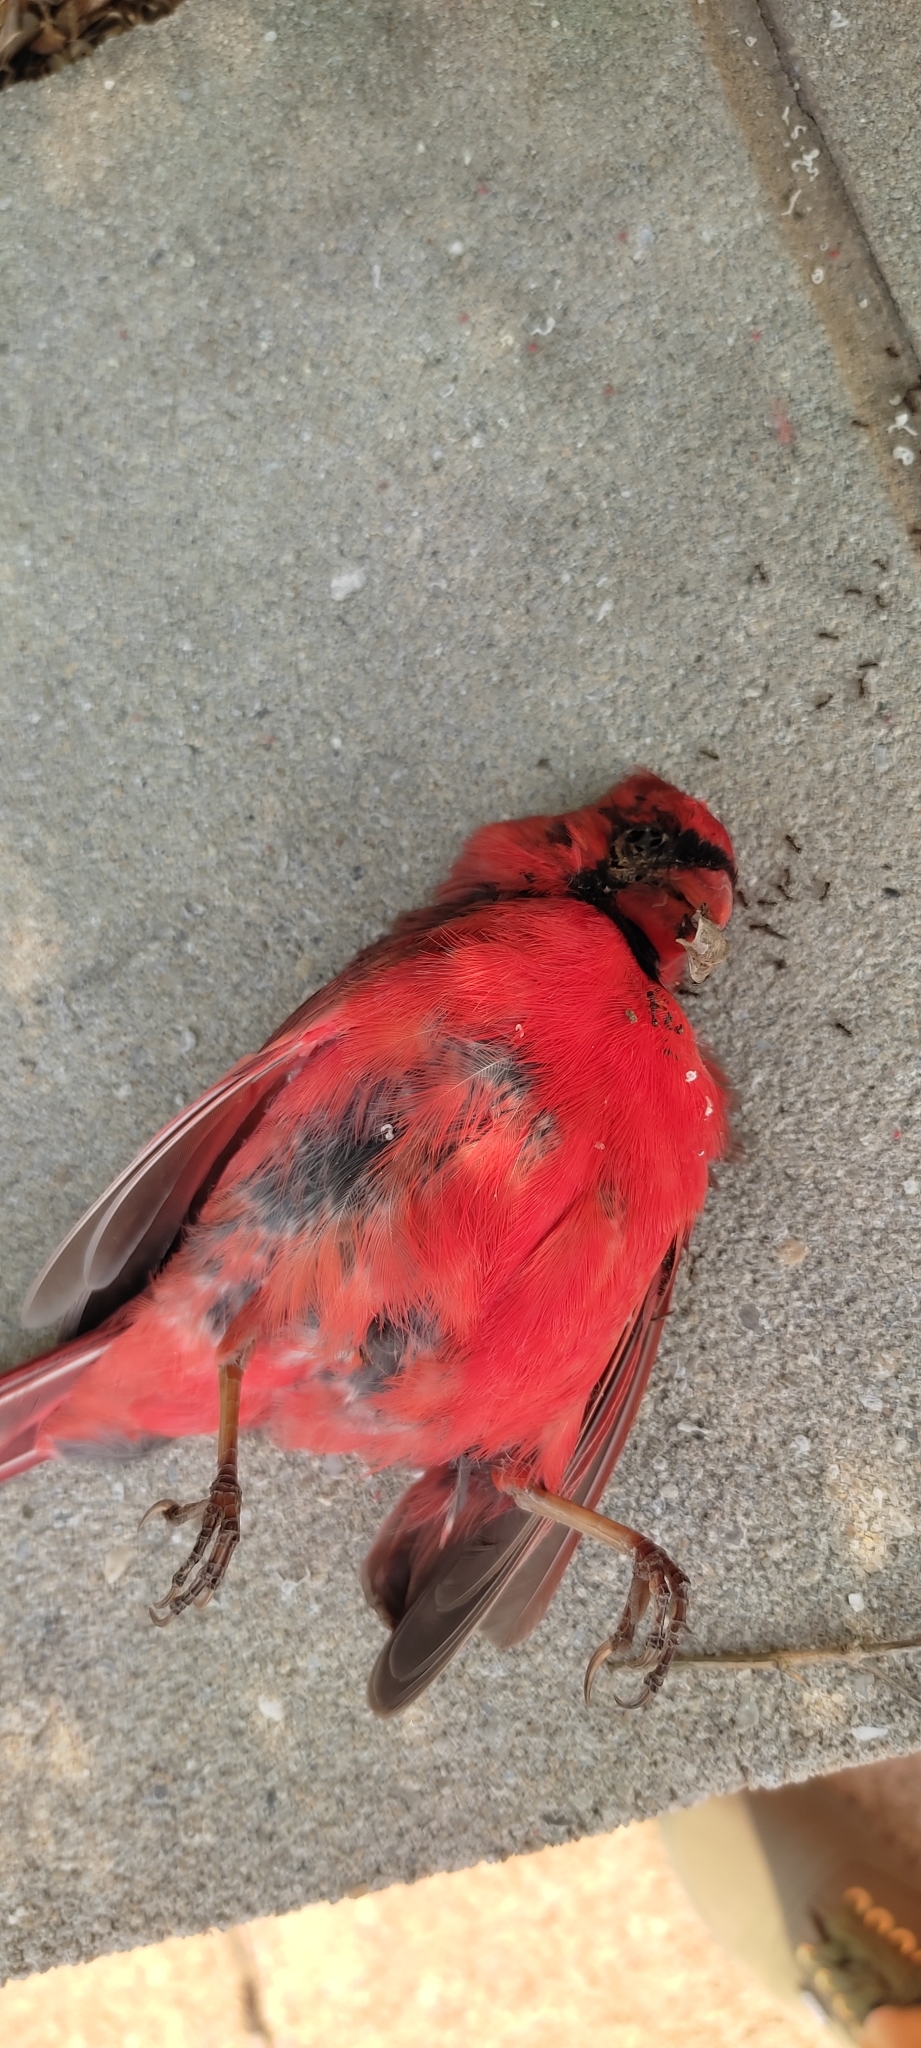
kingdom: Animalia
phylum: Chordata
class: Aves
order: Passeriformes
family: Cardinalidae
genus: Cardinalis
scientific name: Cardinalis cardinalis
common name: Northern cardinal
